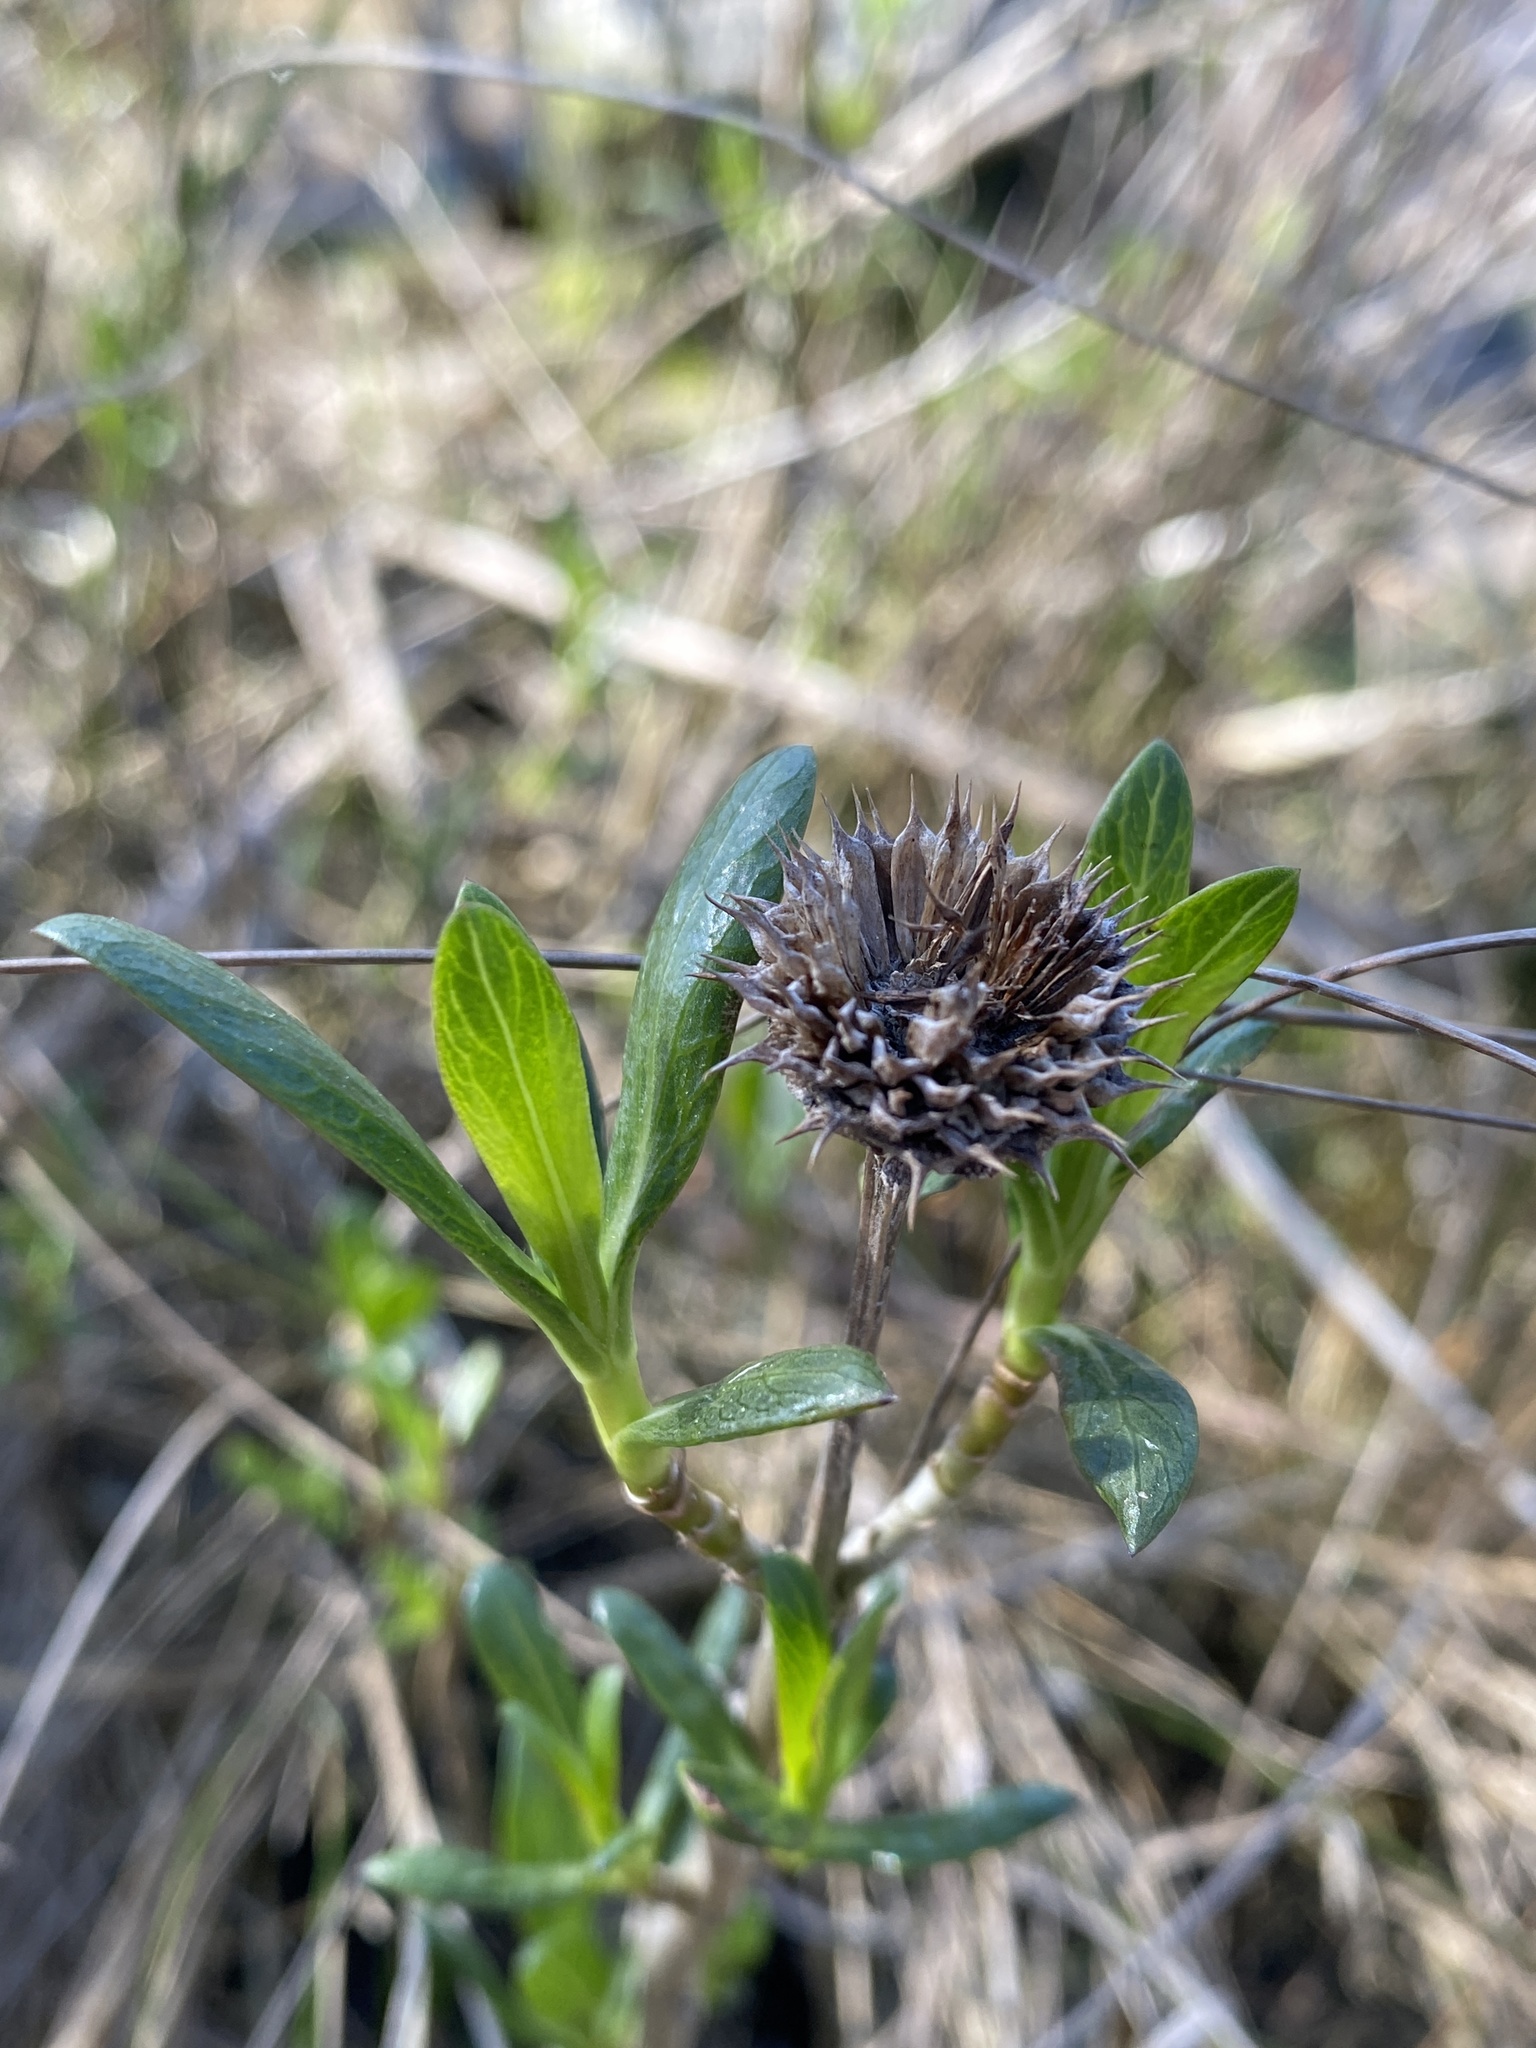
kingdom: Plantae
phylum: Tracheophyta
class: Magnoliopsida
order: Asterales
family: Asteraceae
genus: Borrichia
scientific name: Borrichia frutescens
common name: Sea oxeye
